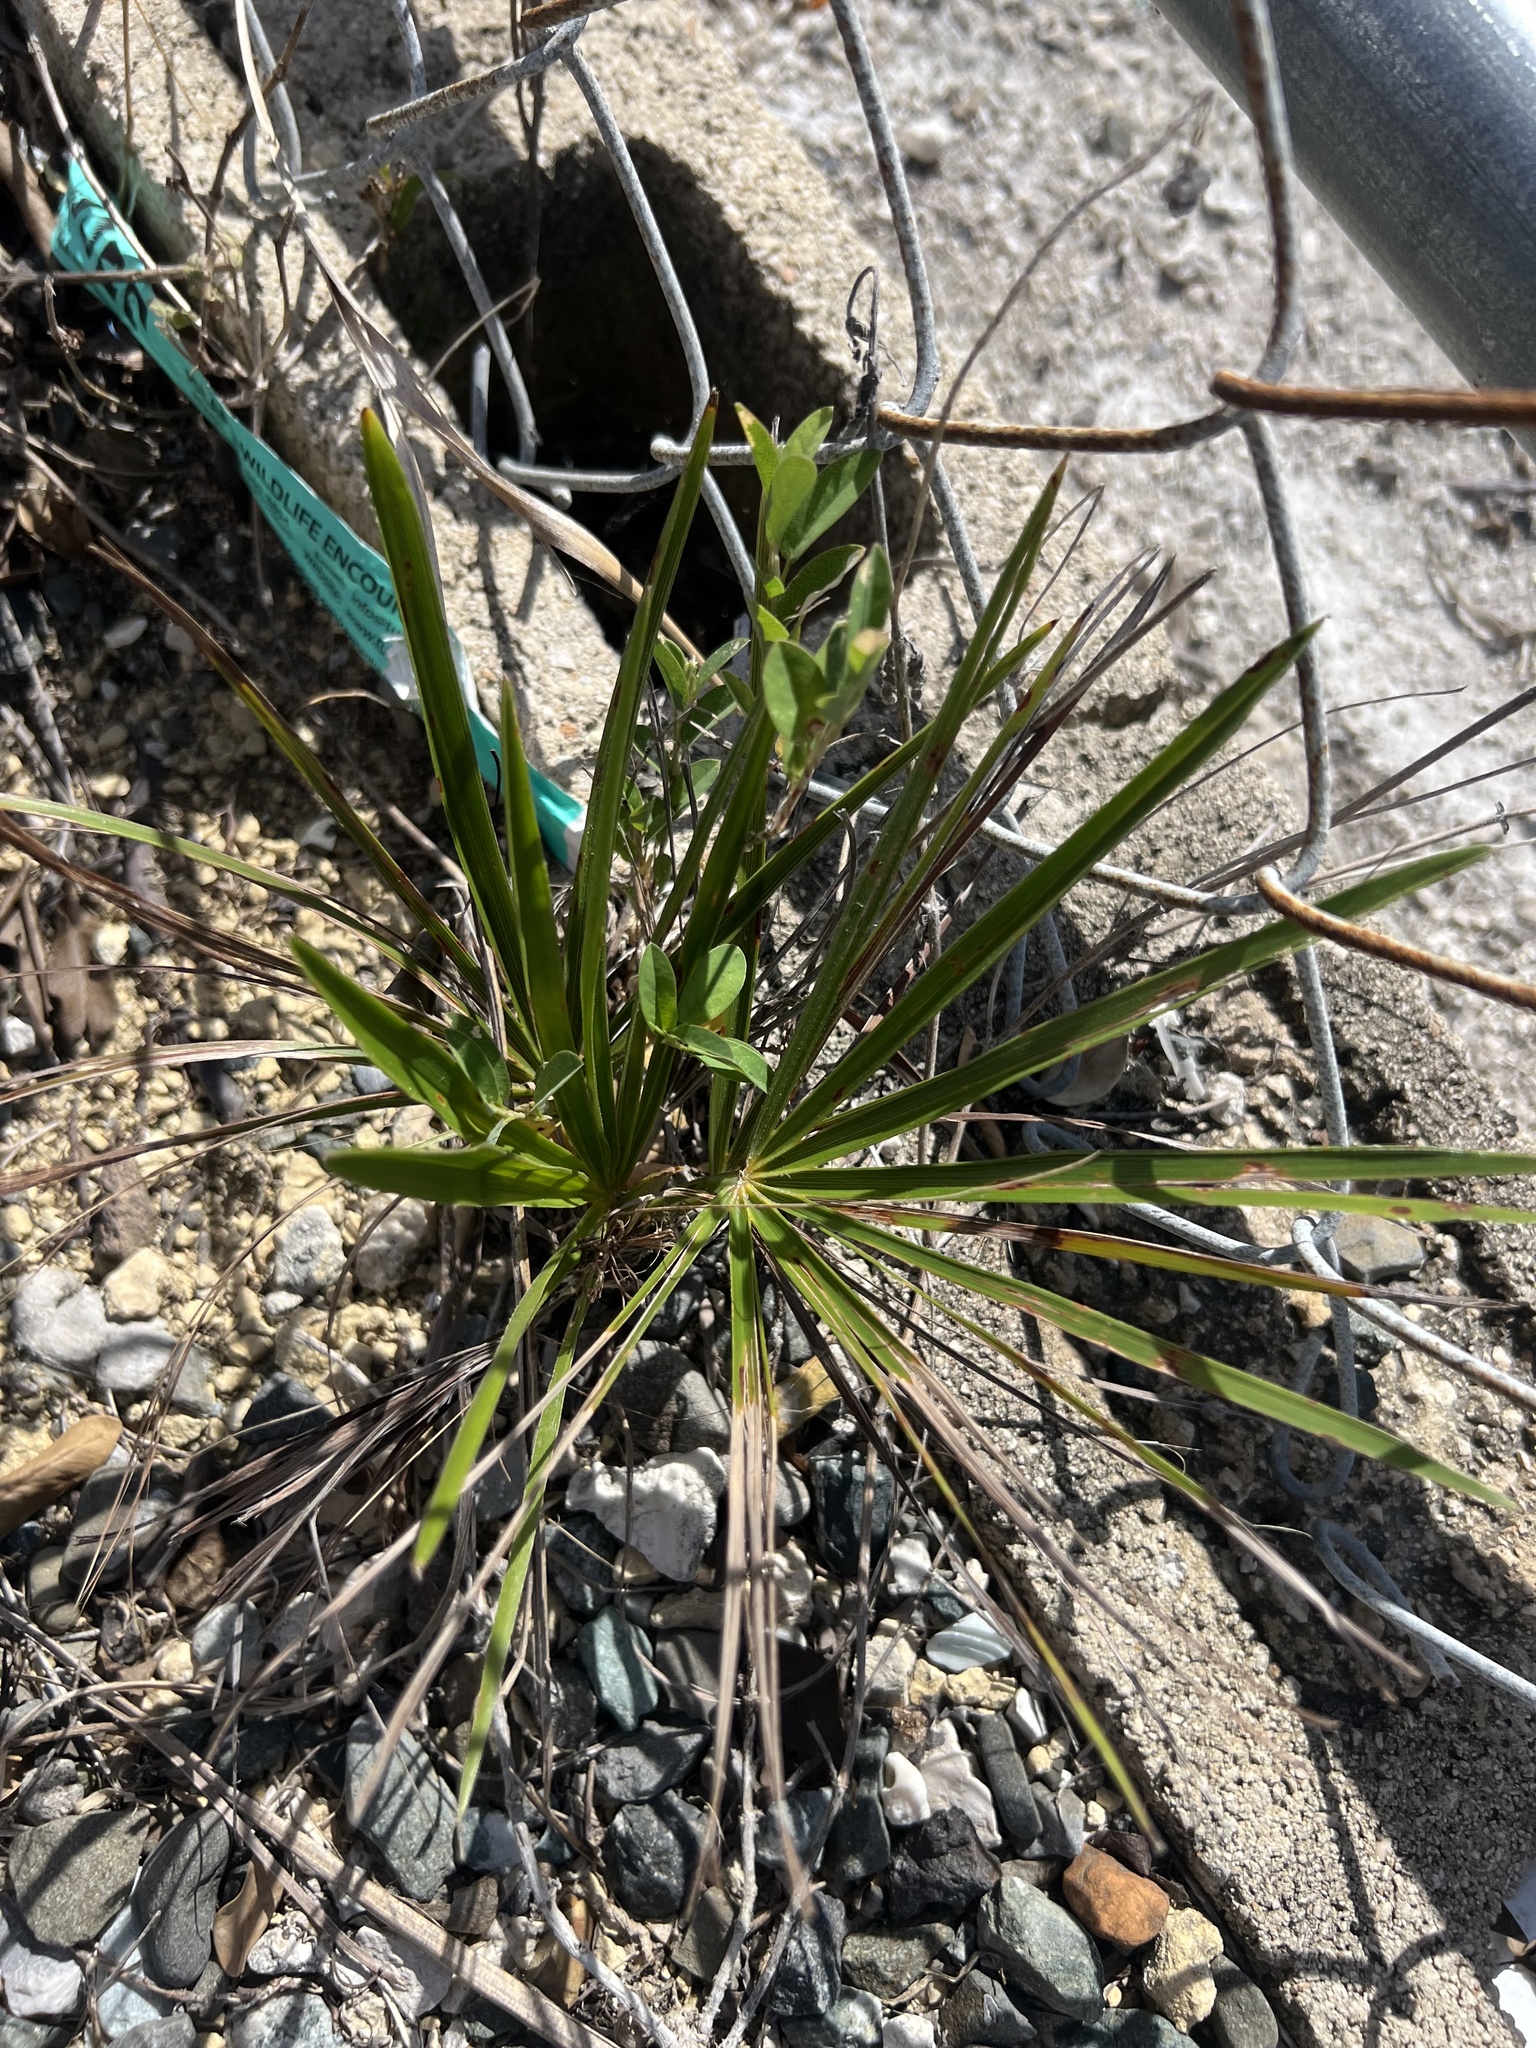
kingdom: Plantae
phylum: Tracheophyta
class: Liliopsida
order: Arecales
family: Arecaceae
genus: Thrinax
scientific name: Thrinax radiata
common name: Florida thatch
